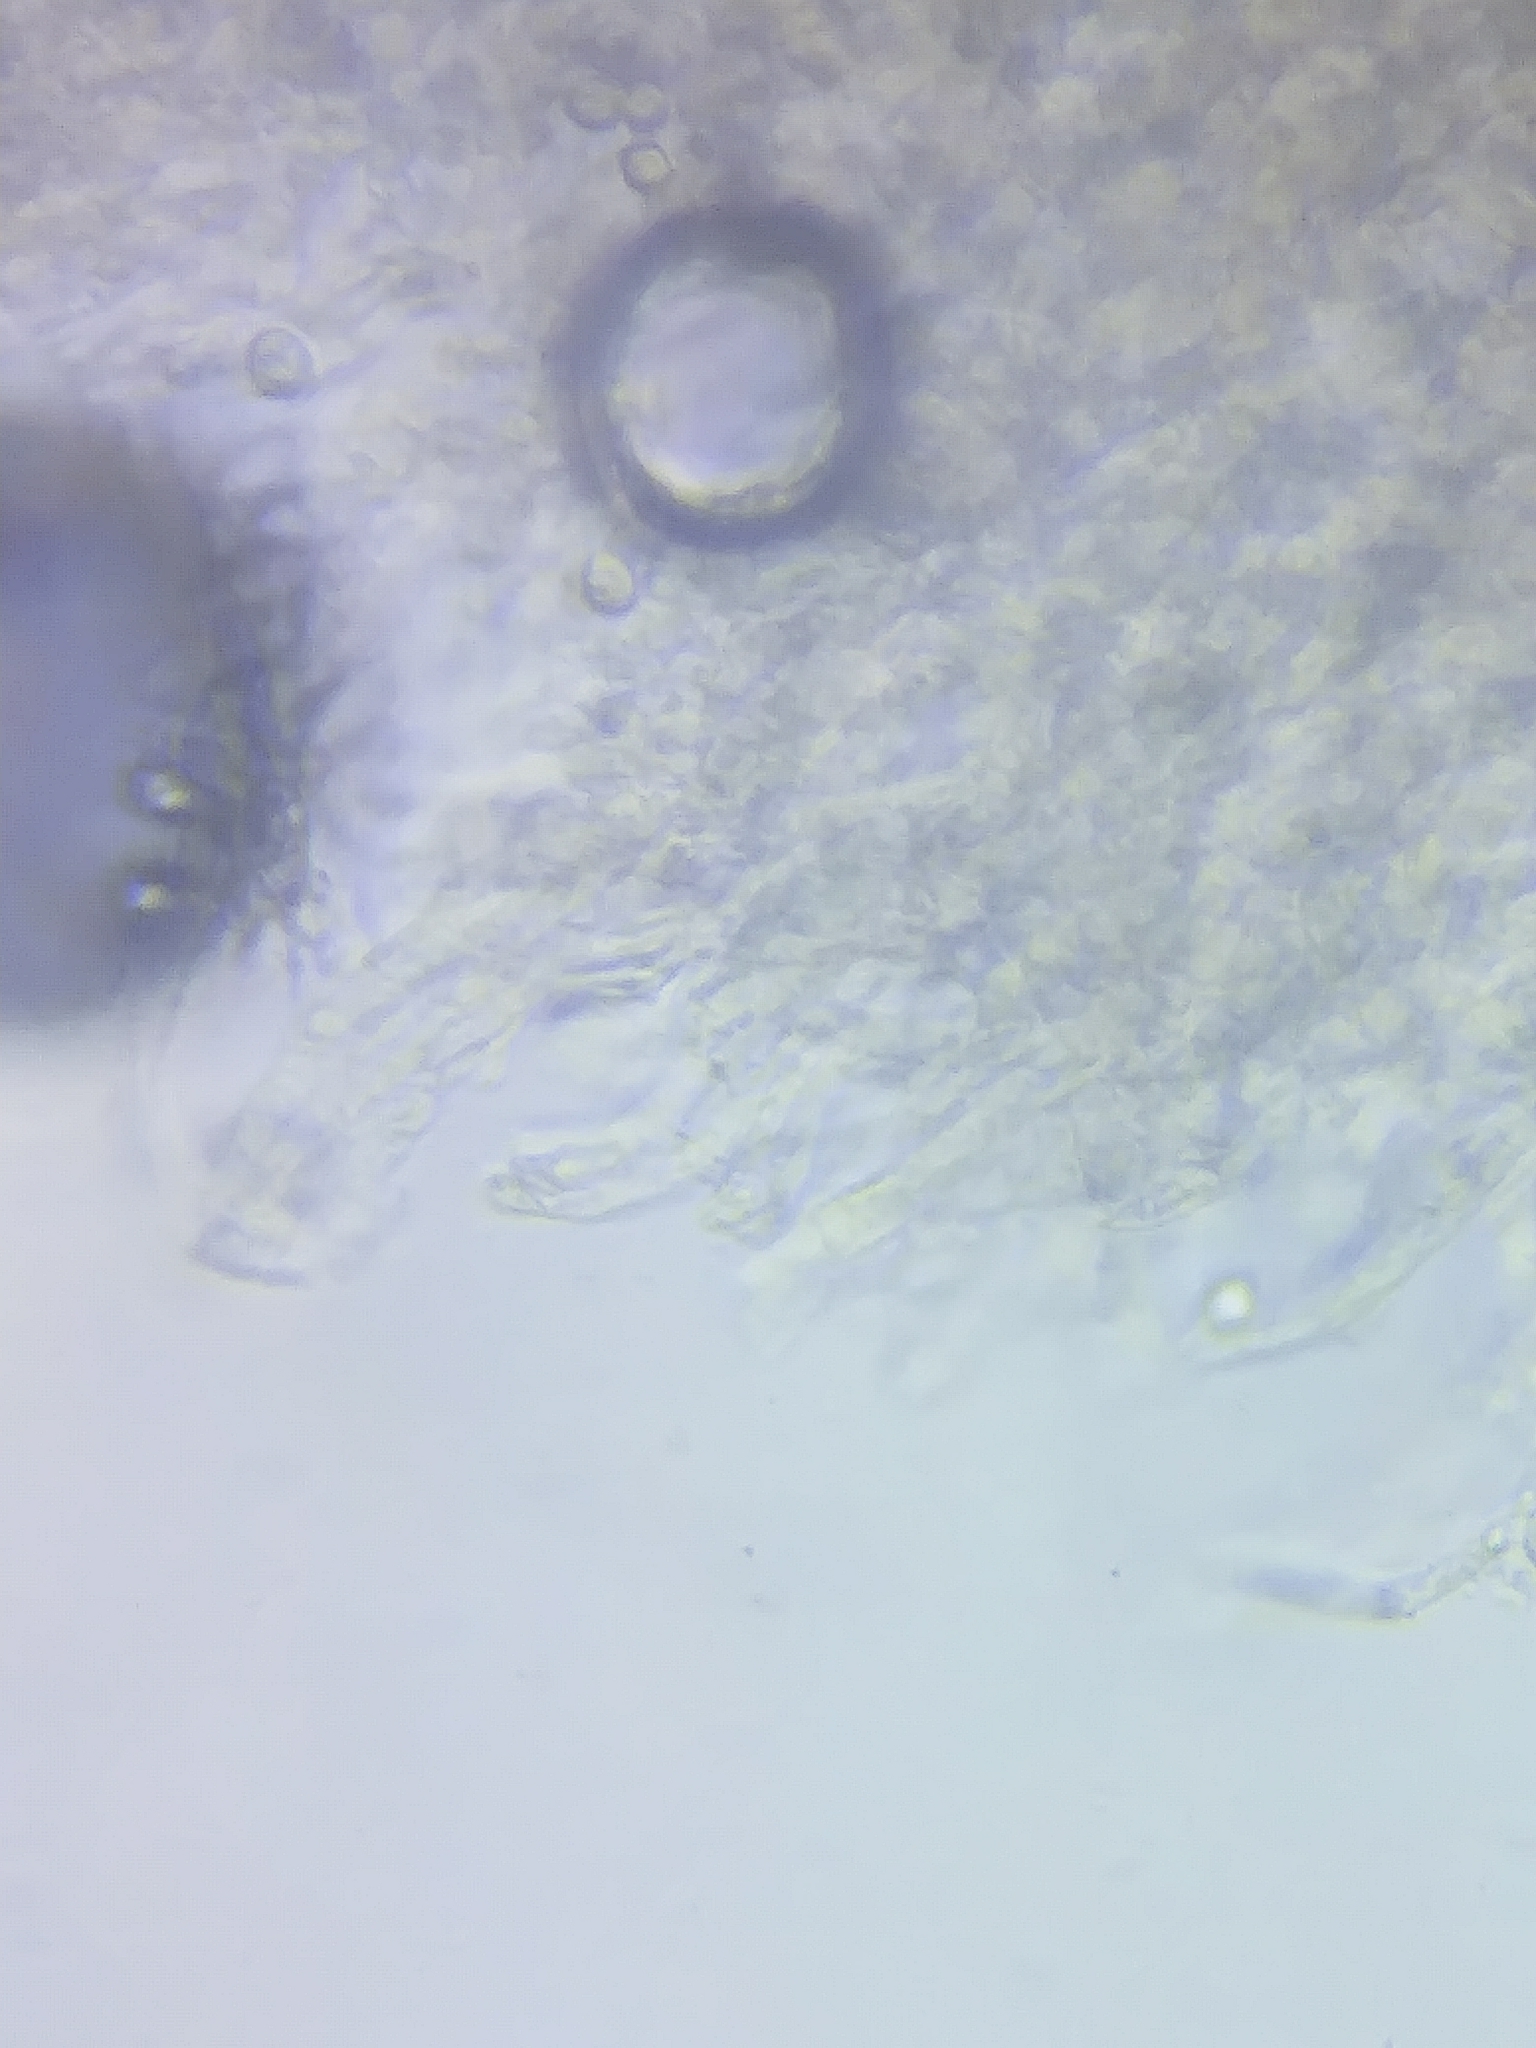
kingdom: Fungi
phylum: Basidiomycota
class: Agaricomycetes
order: Agaricales
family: Hygrophoraceae
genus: Cuphophyllus
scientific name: Cuphophyllus canescens
